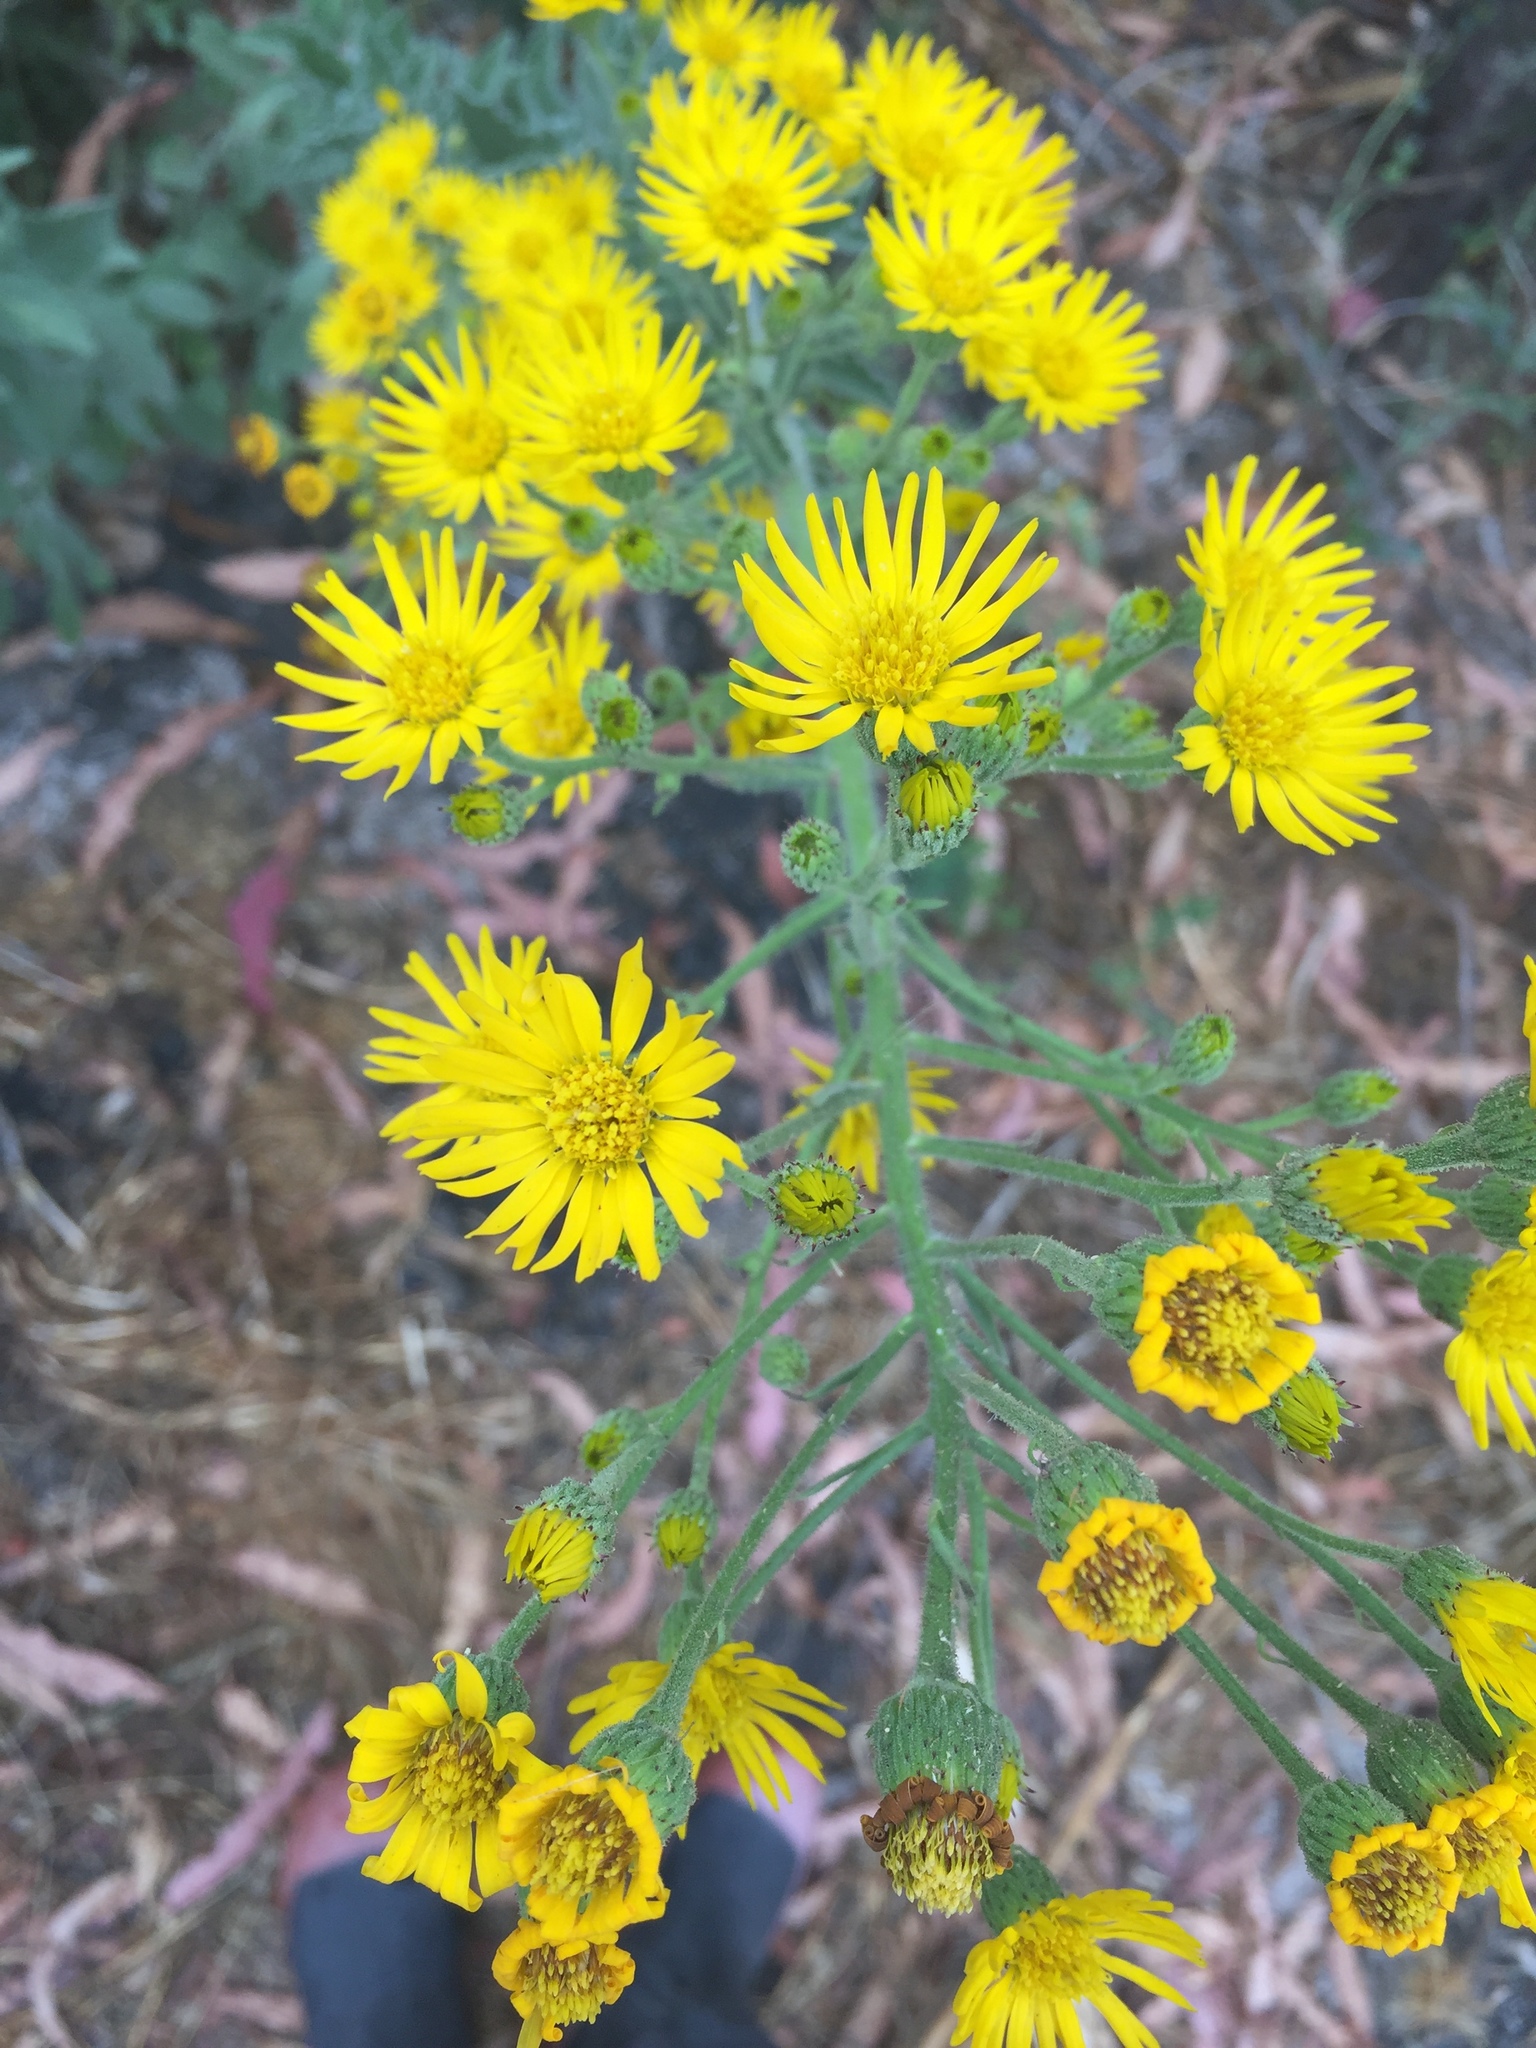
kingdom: Plantae
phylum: Tracheophyta
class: Magnoliopsida
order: Asterales
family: Asteraceae
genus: Heterotheca
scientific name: Heterotheca grandiflora
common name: Telegraphweed
